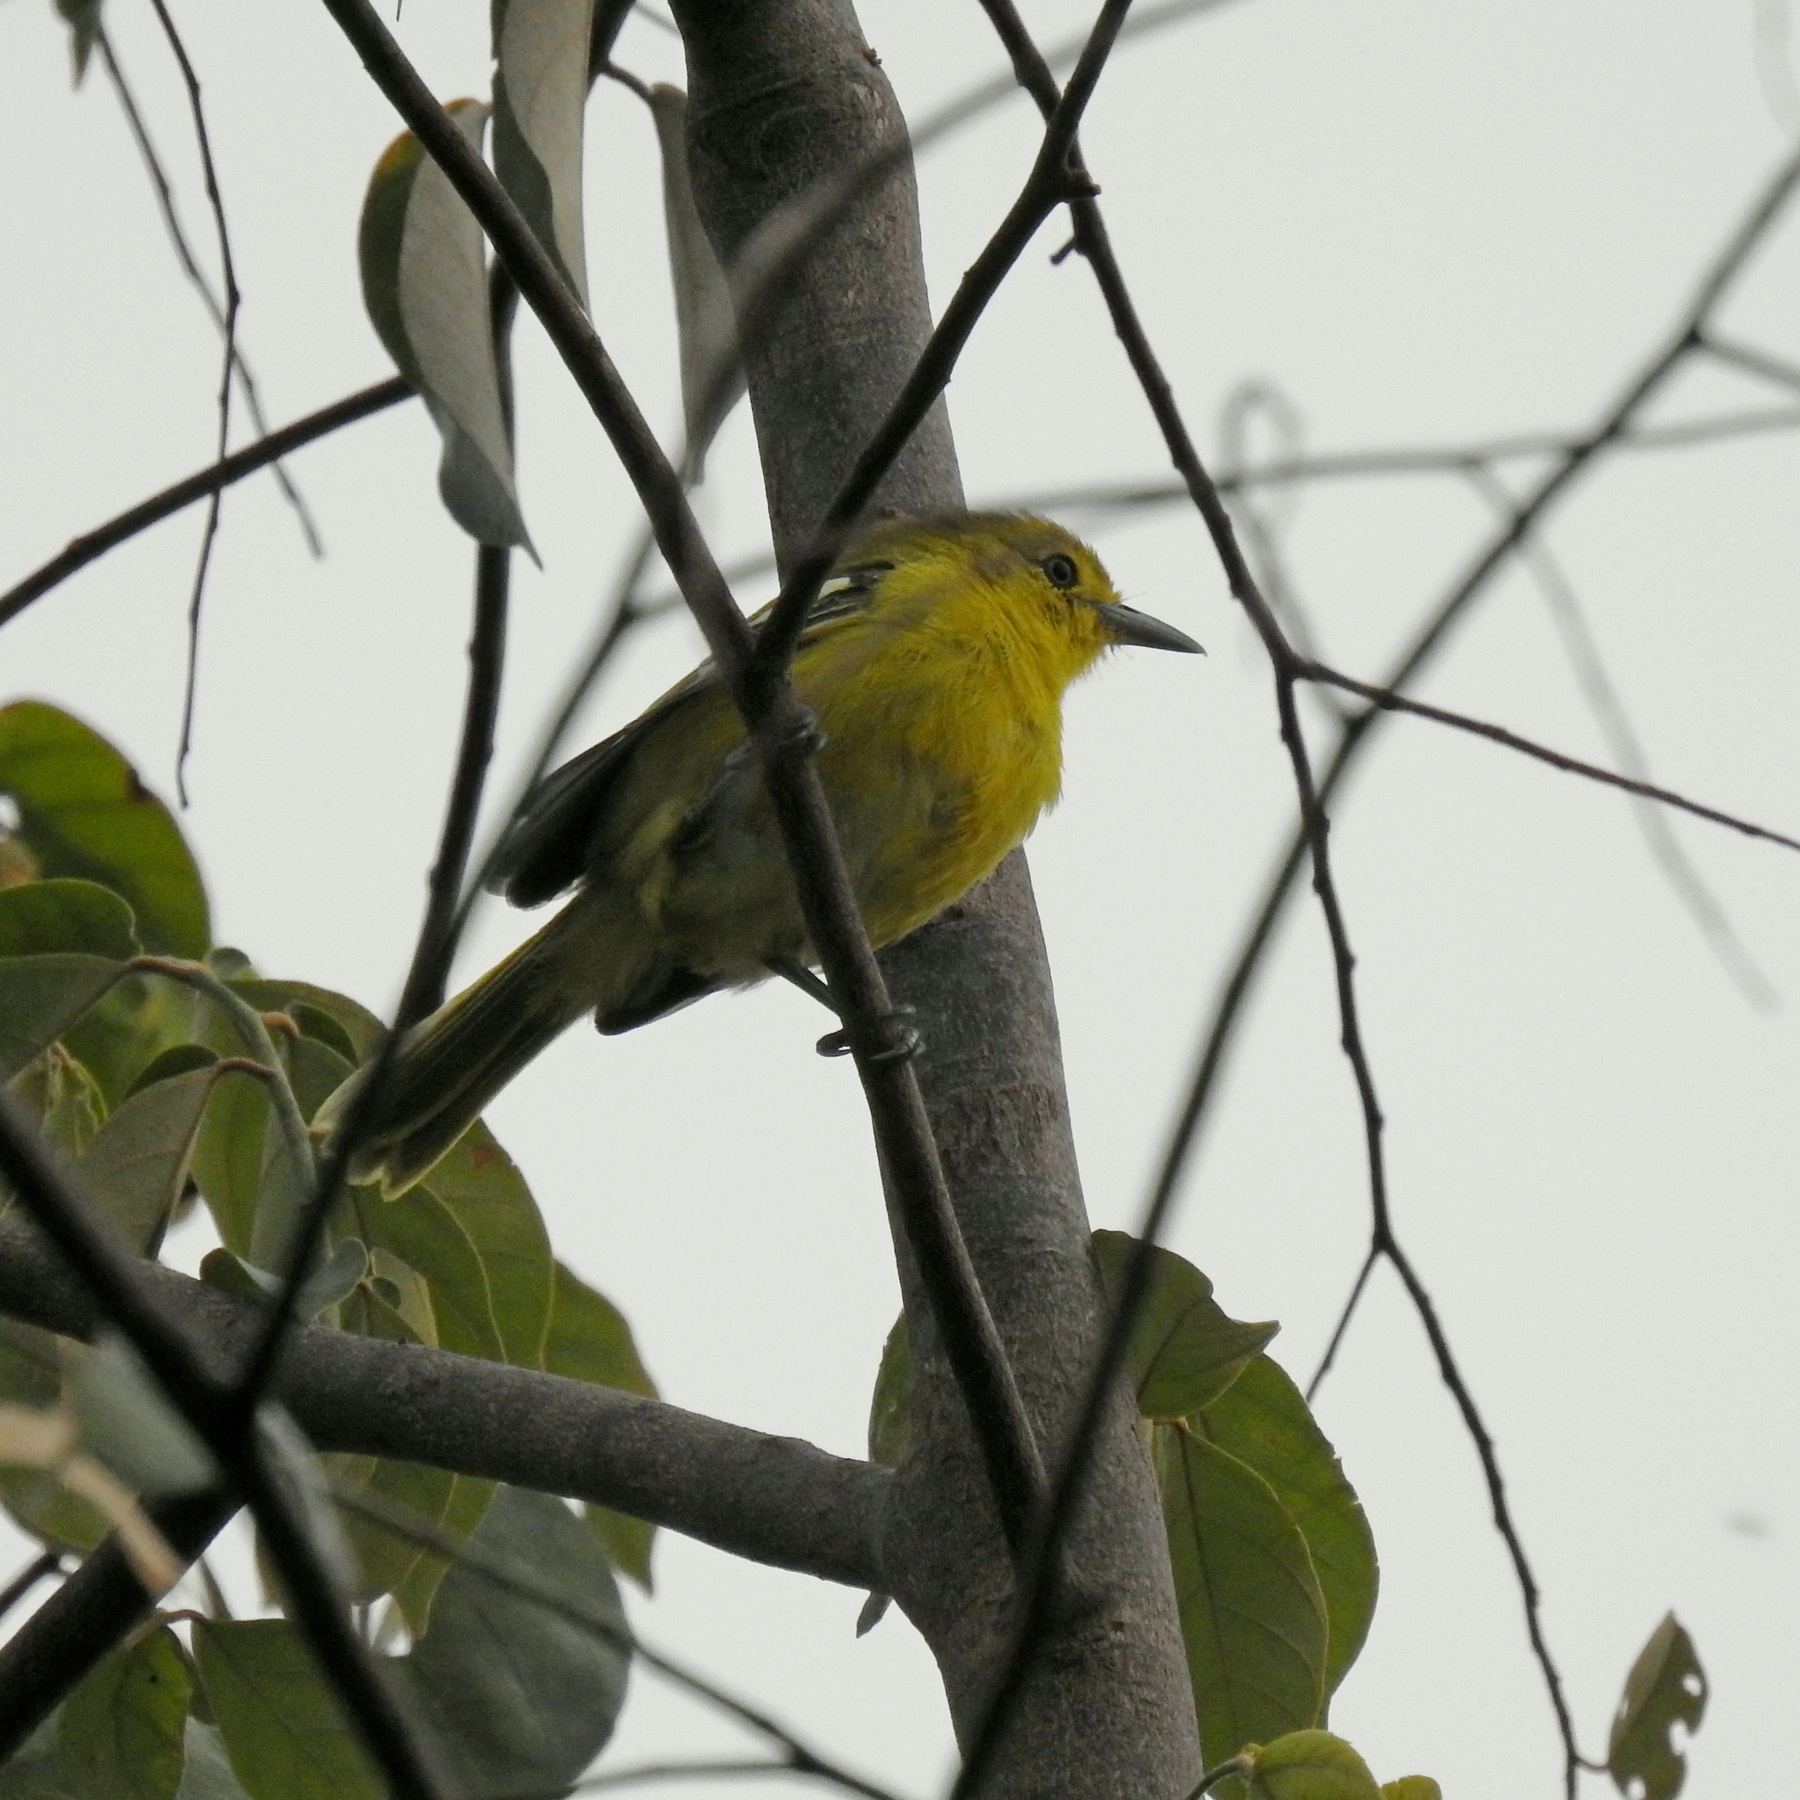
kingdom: Animalia
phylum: Chordata
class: Aves
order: Passeriformes
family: Aegithinidae
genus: Aegithina
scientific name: Aegithina tiphia
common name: Common iora
